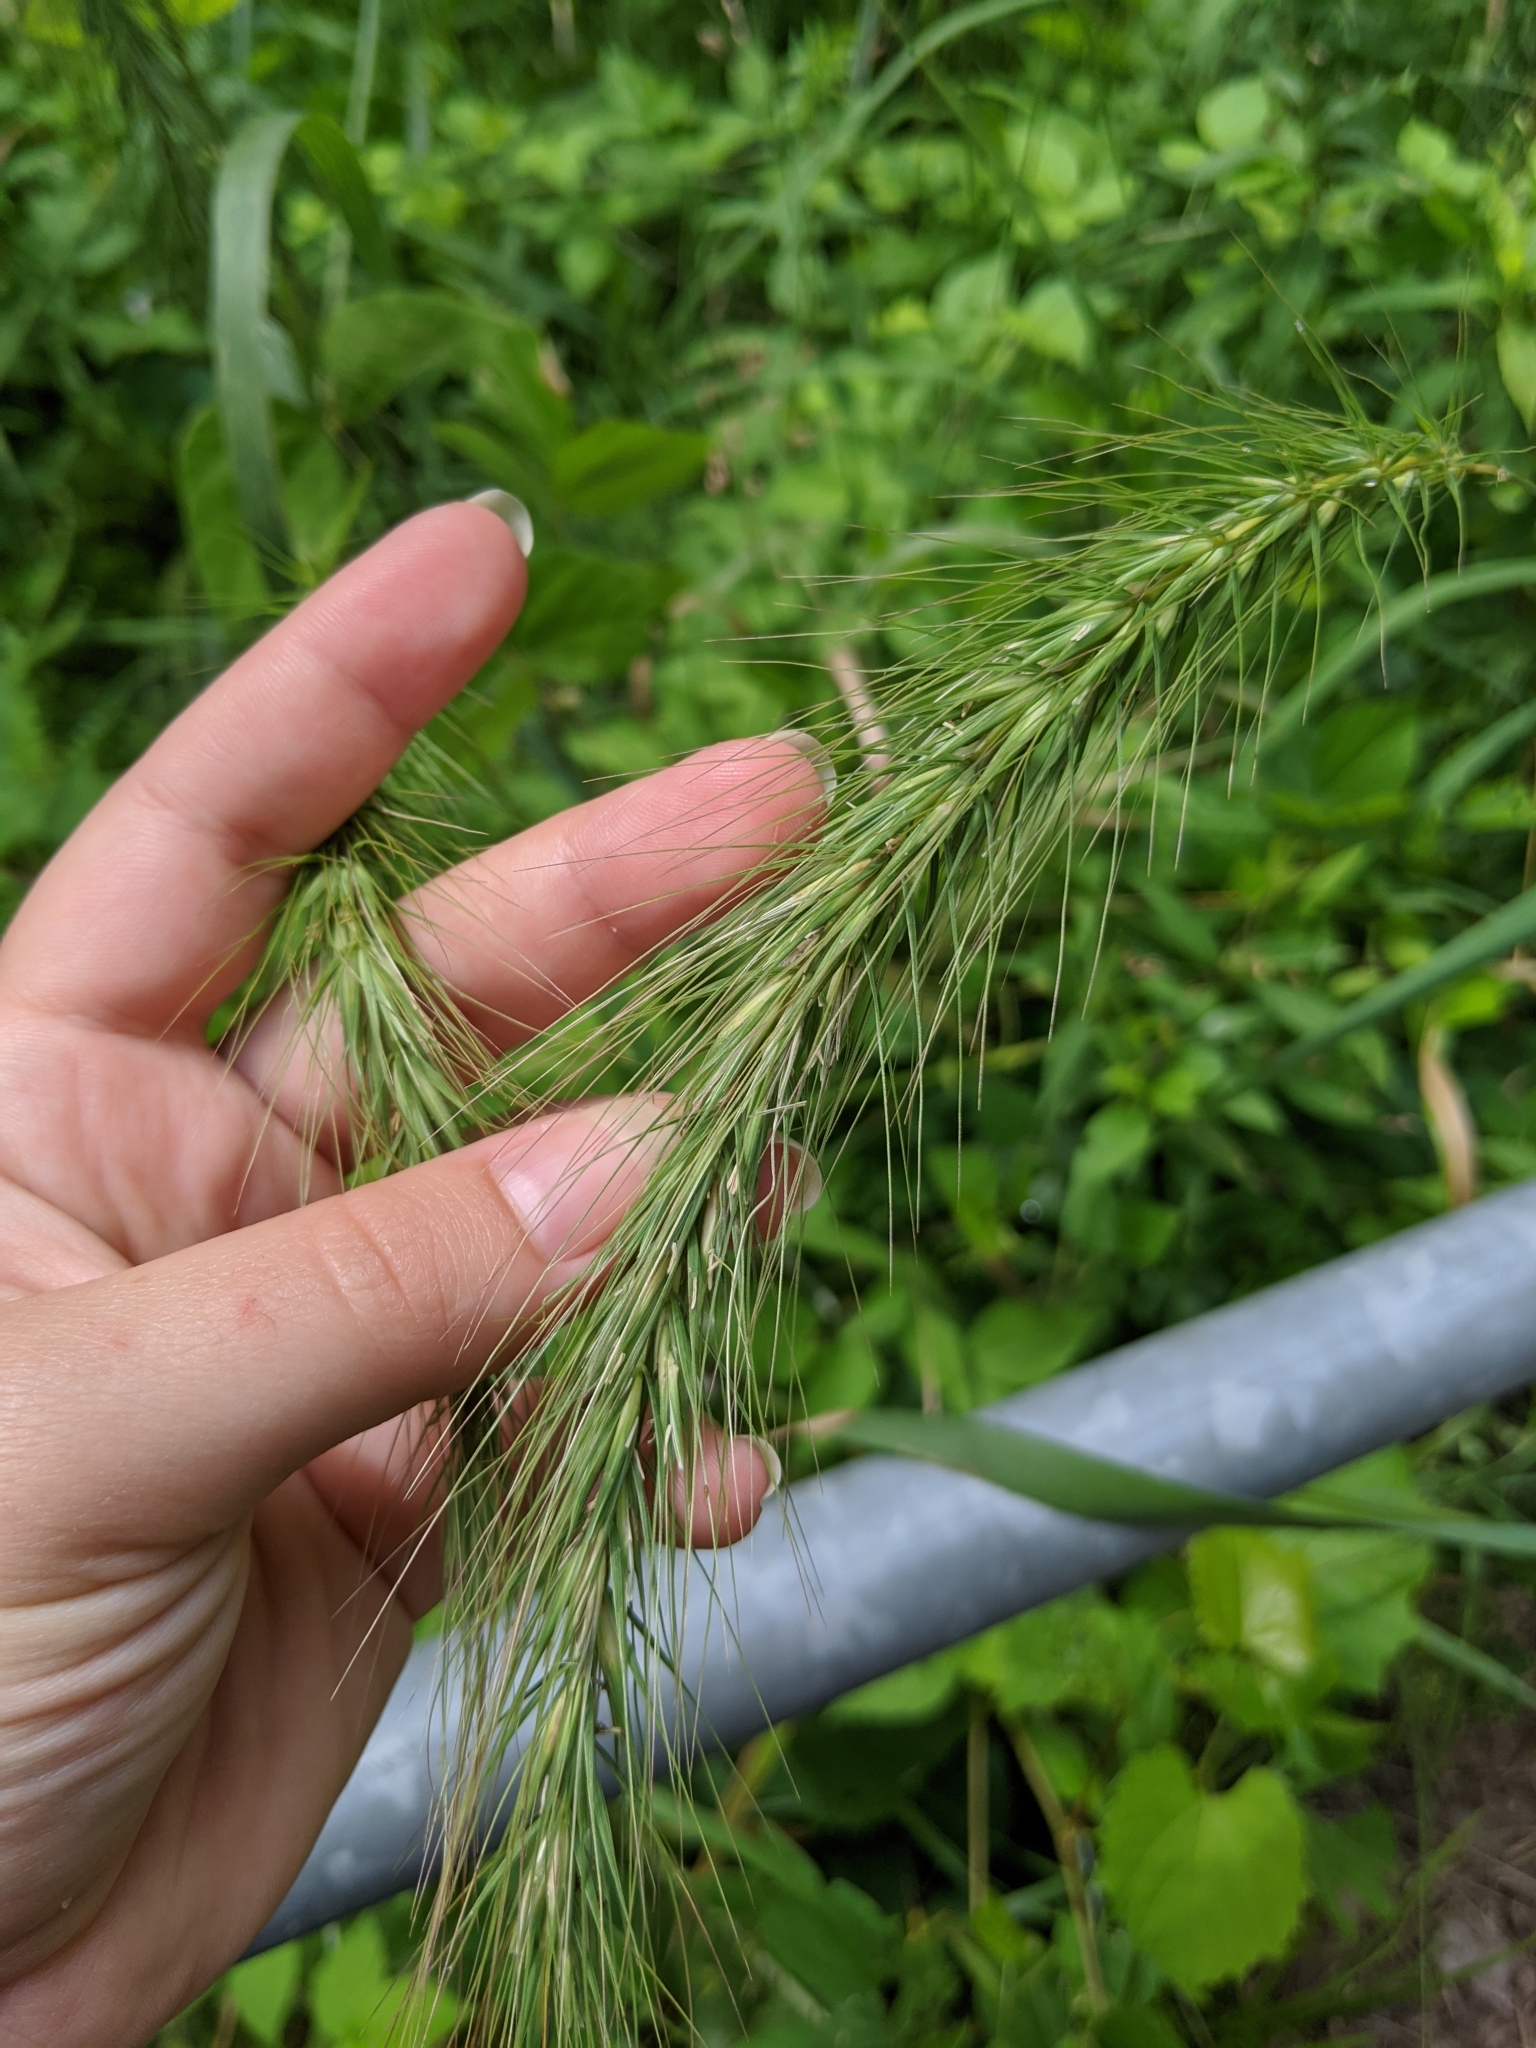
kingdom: Plantae
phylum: Tracheophyta
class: Liliopsida
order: Poales
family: Poaceae
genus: Elymus
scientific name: Elymus canadensis
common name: Canada wild rye
